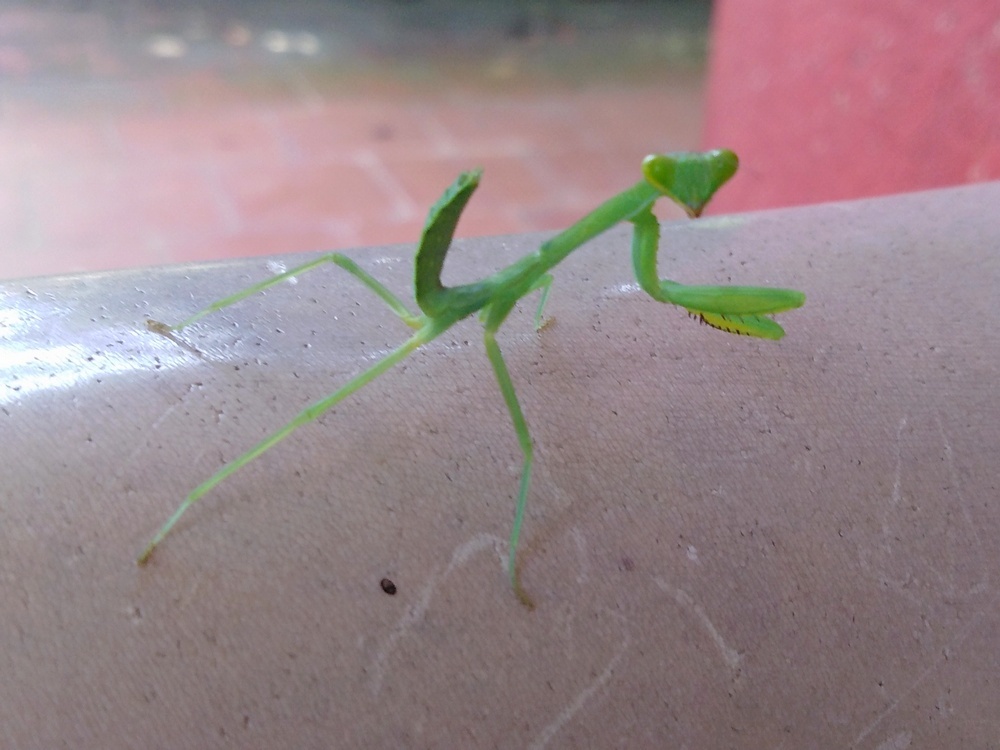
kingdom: Animalia
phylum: Arthropoda
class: Insecta
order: Mantodea
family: Mantidae
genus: Hierodula
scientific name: Hierodula tenuidentata
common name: Giant asian mantis
